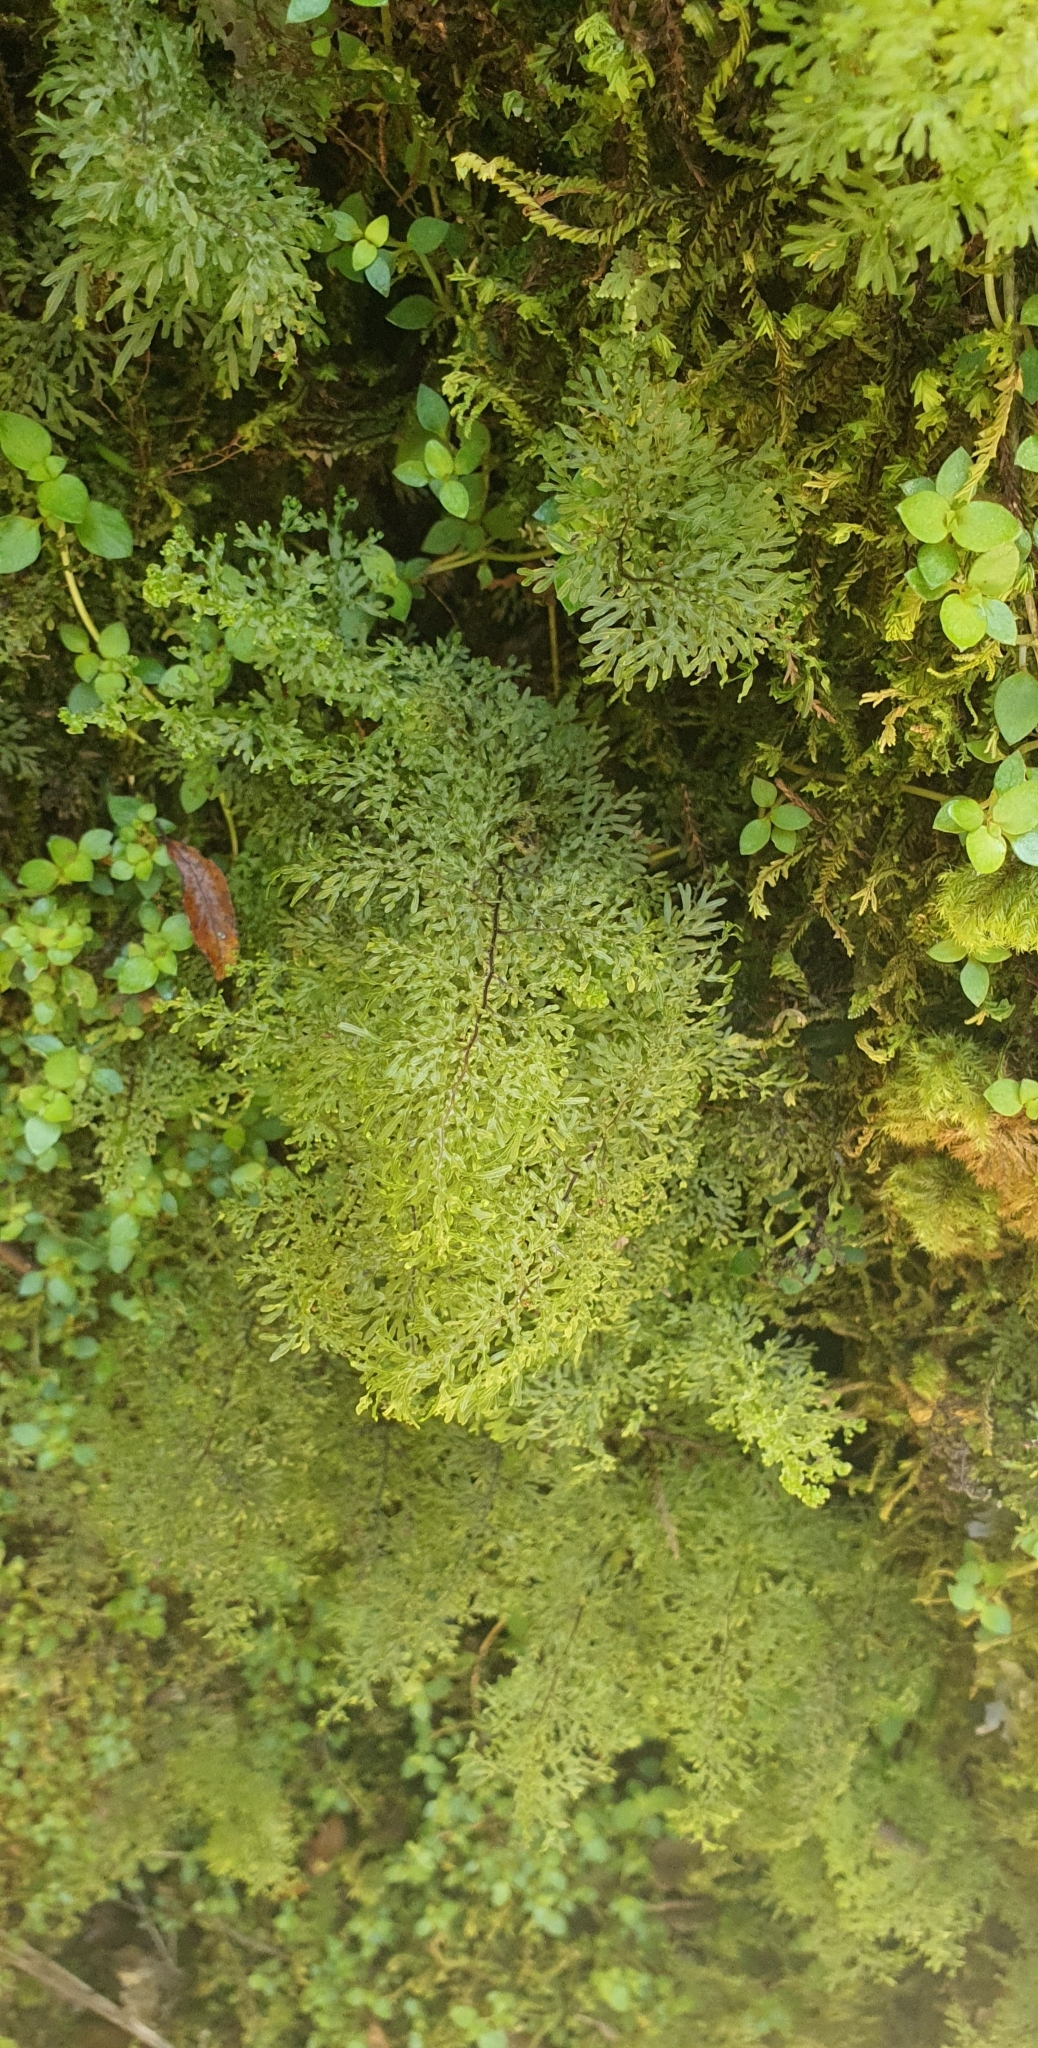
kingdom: Plantae
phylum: Tracheophyta
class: Polypodiopsida
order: Hymenophyllales
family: Hymenophyllaceae
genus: Hymenophyllum
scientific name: Hymenophyllum flexuosum
